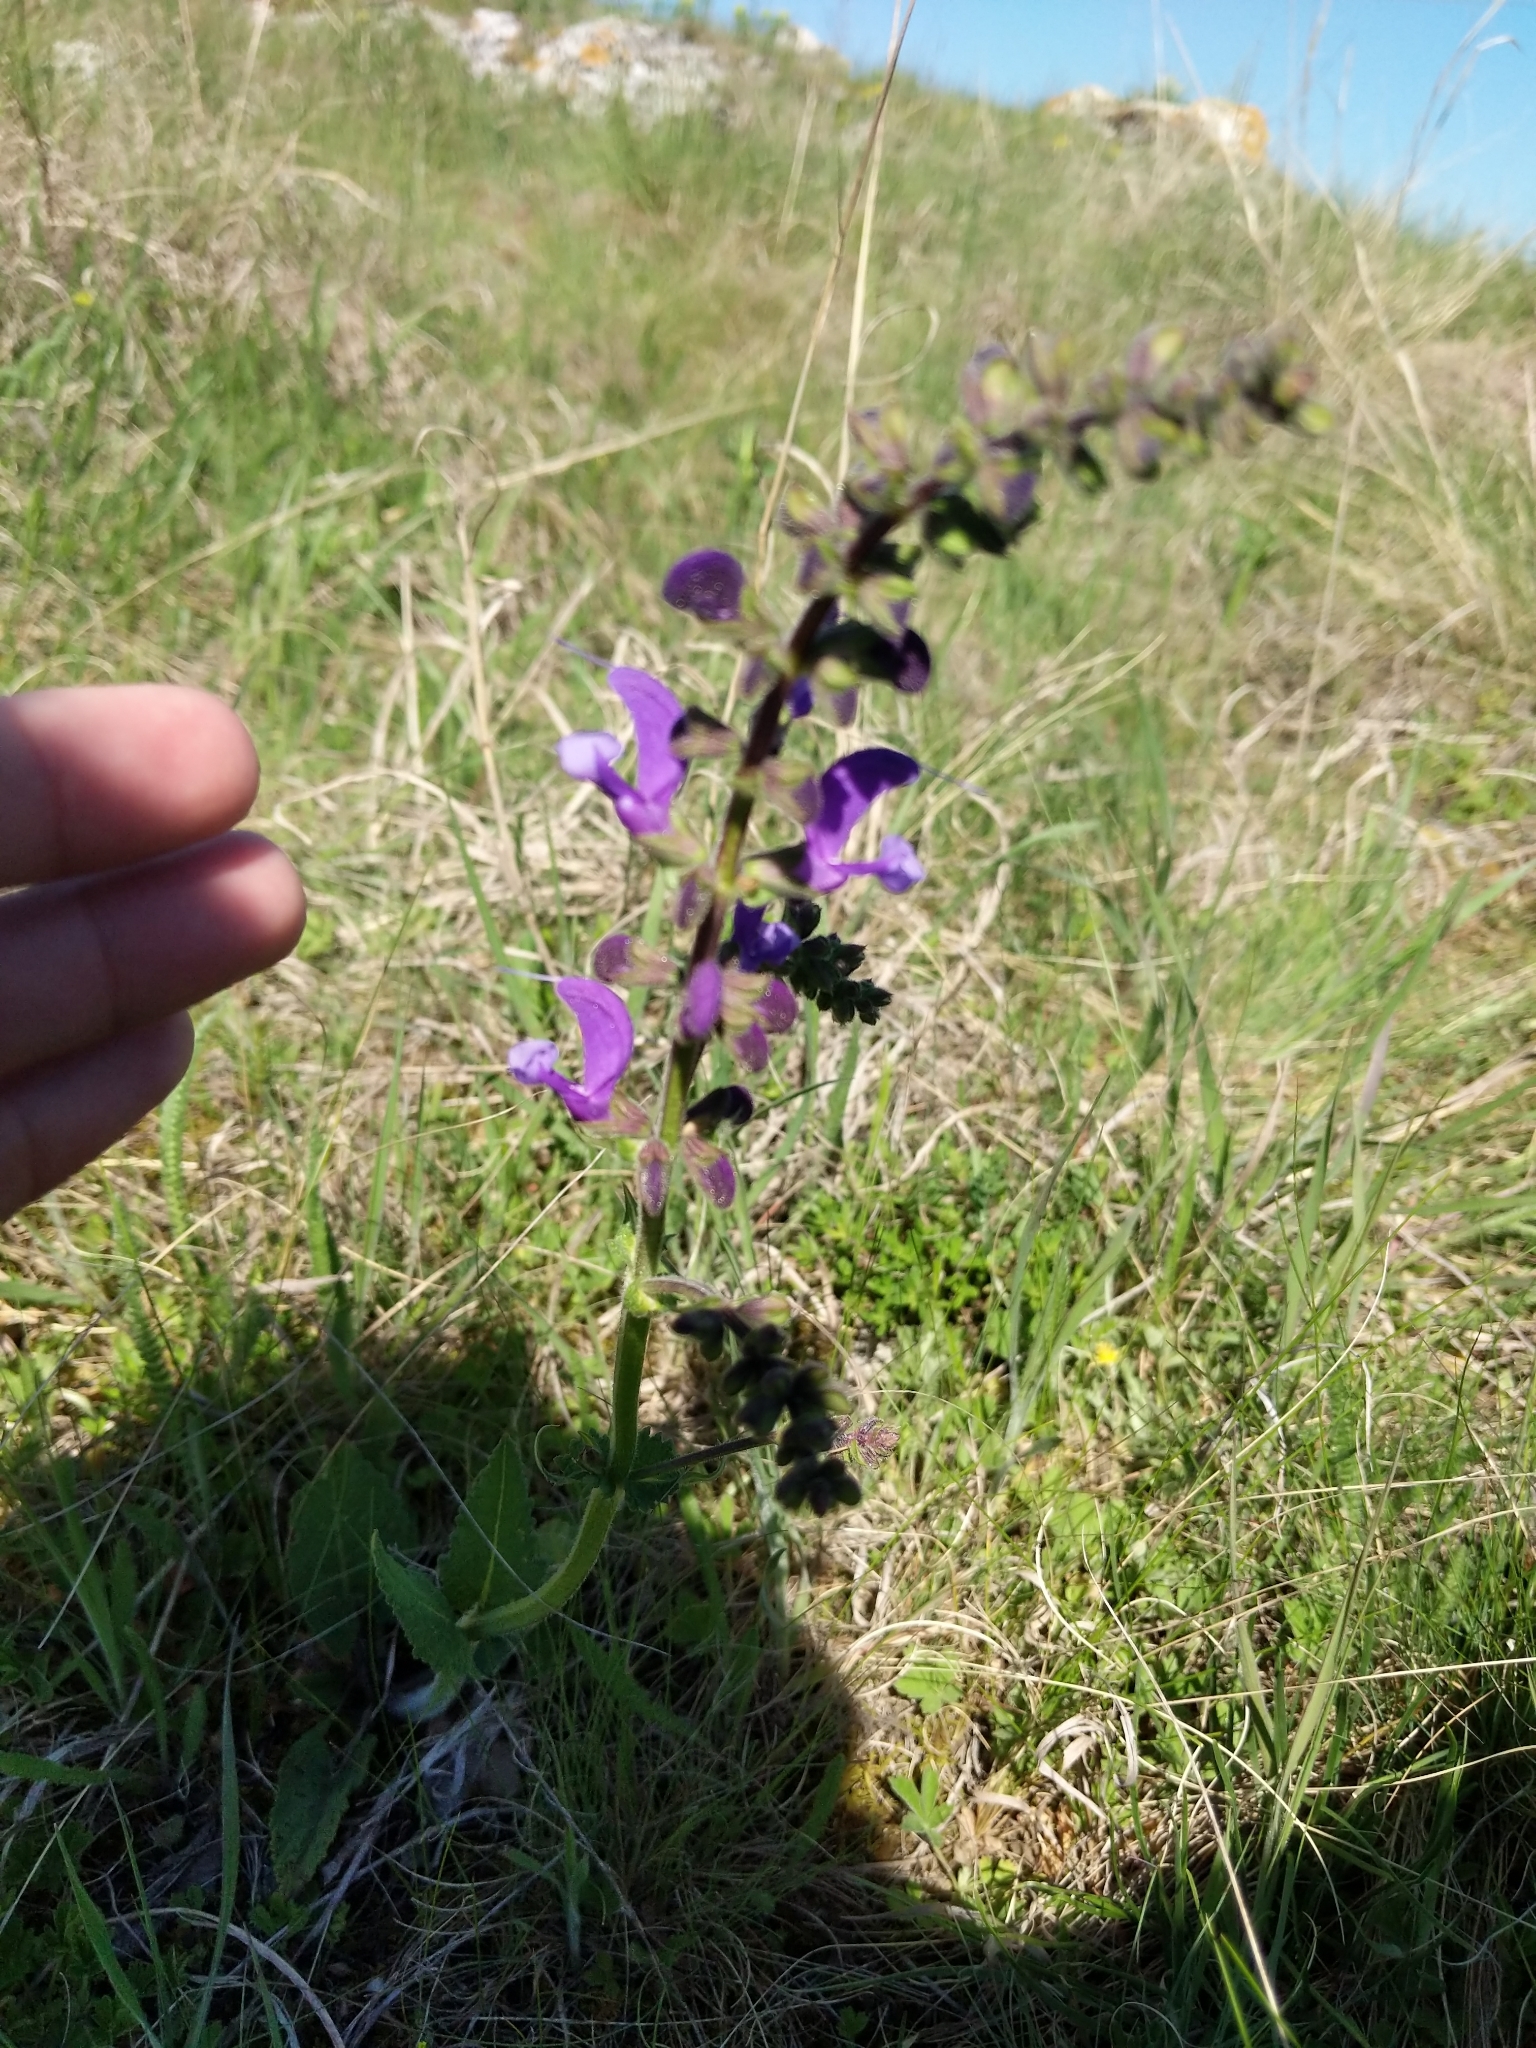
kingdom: Plantae
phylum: Tracheophyta
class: Magnoliopsida
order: Lamiales
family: Lamiaceae
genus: Salvia
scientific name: Salvia pratensis
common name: Meadow sage
